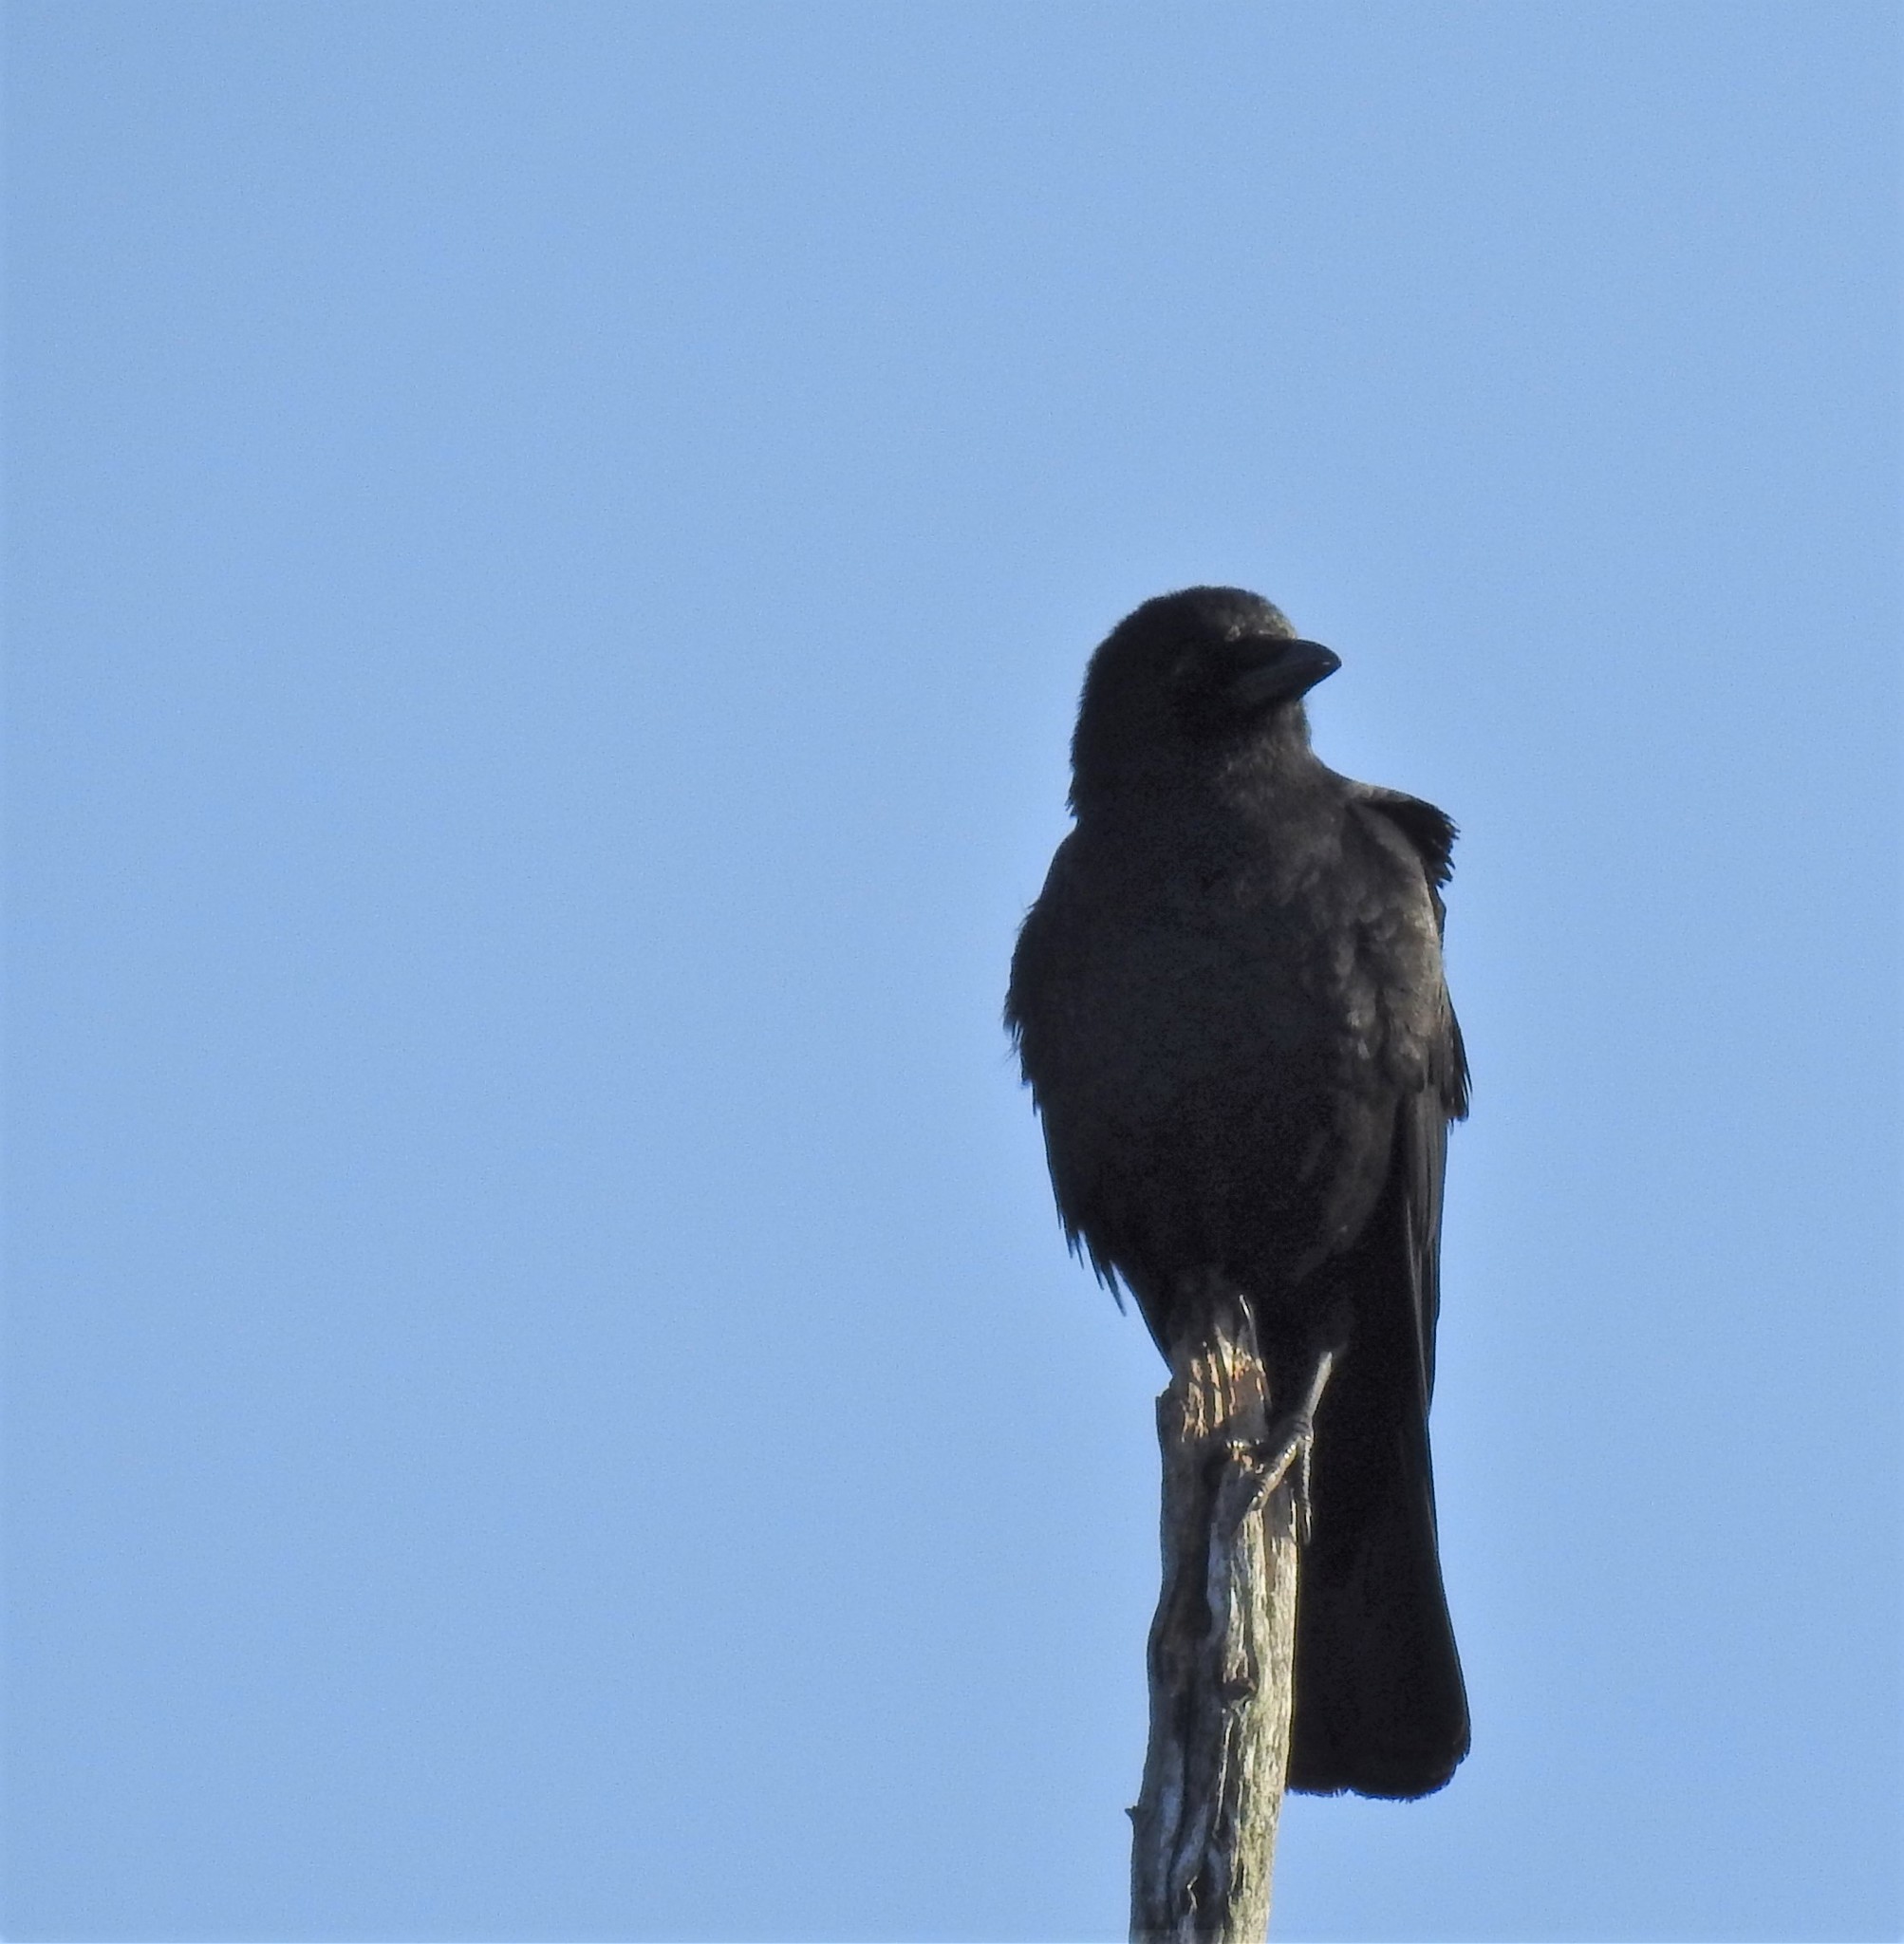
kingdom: Animalia
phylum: Chordata
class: Aves
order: Passeriformes
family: Corvidae
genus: Corvus
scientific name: Corvus brachyrhynchos
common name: American crow
